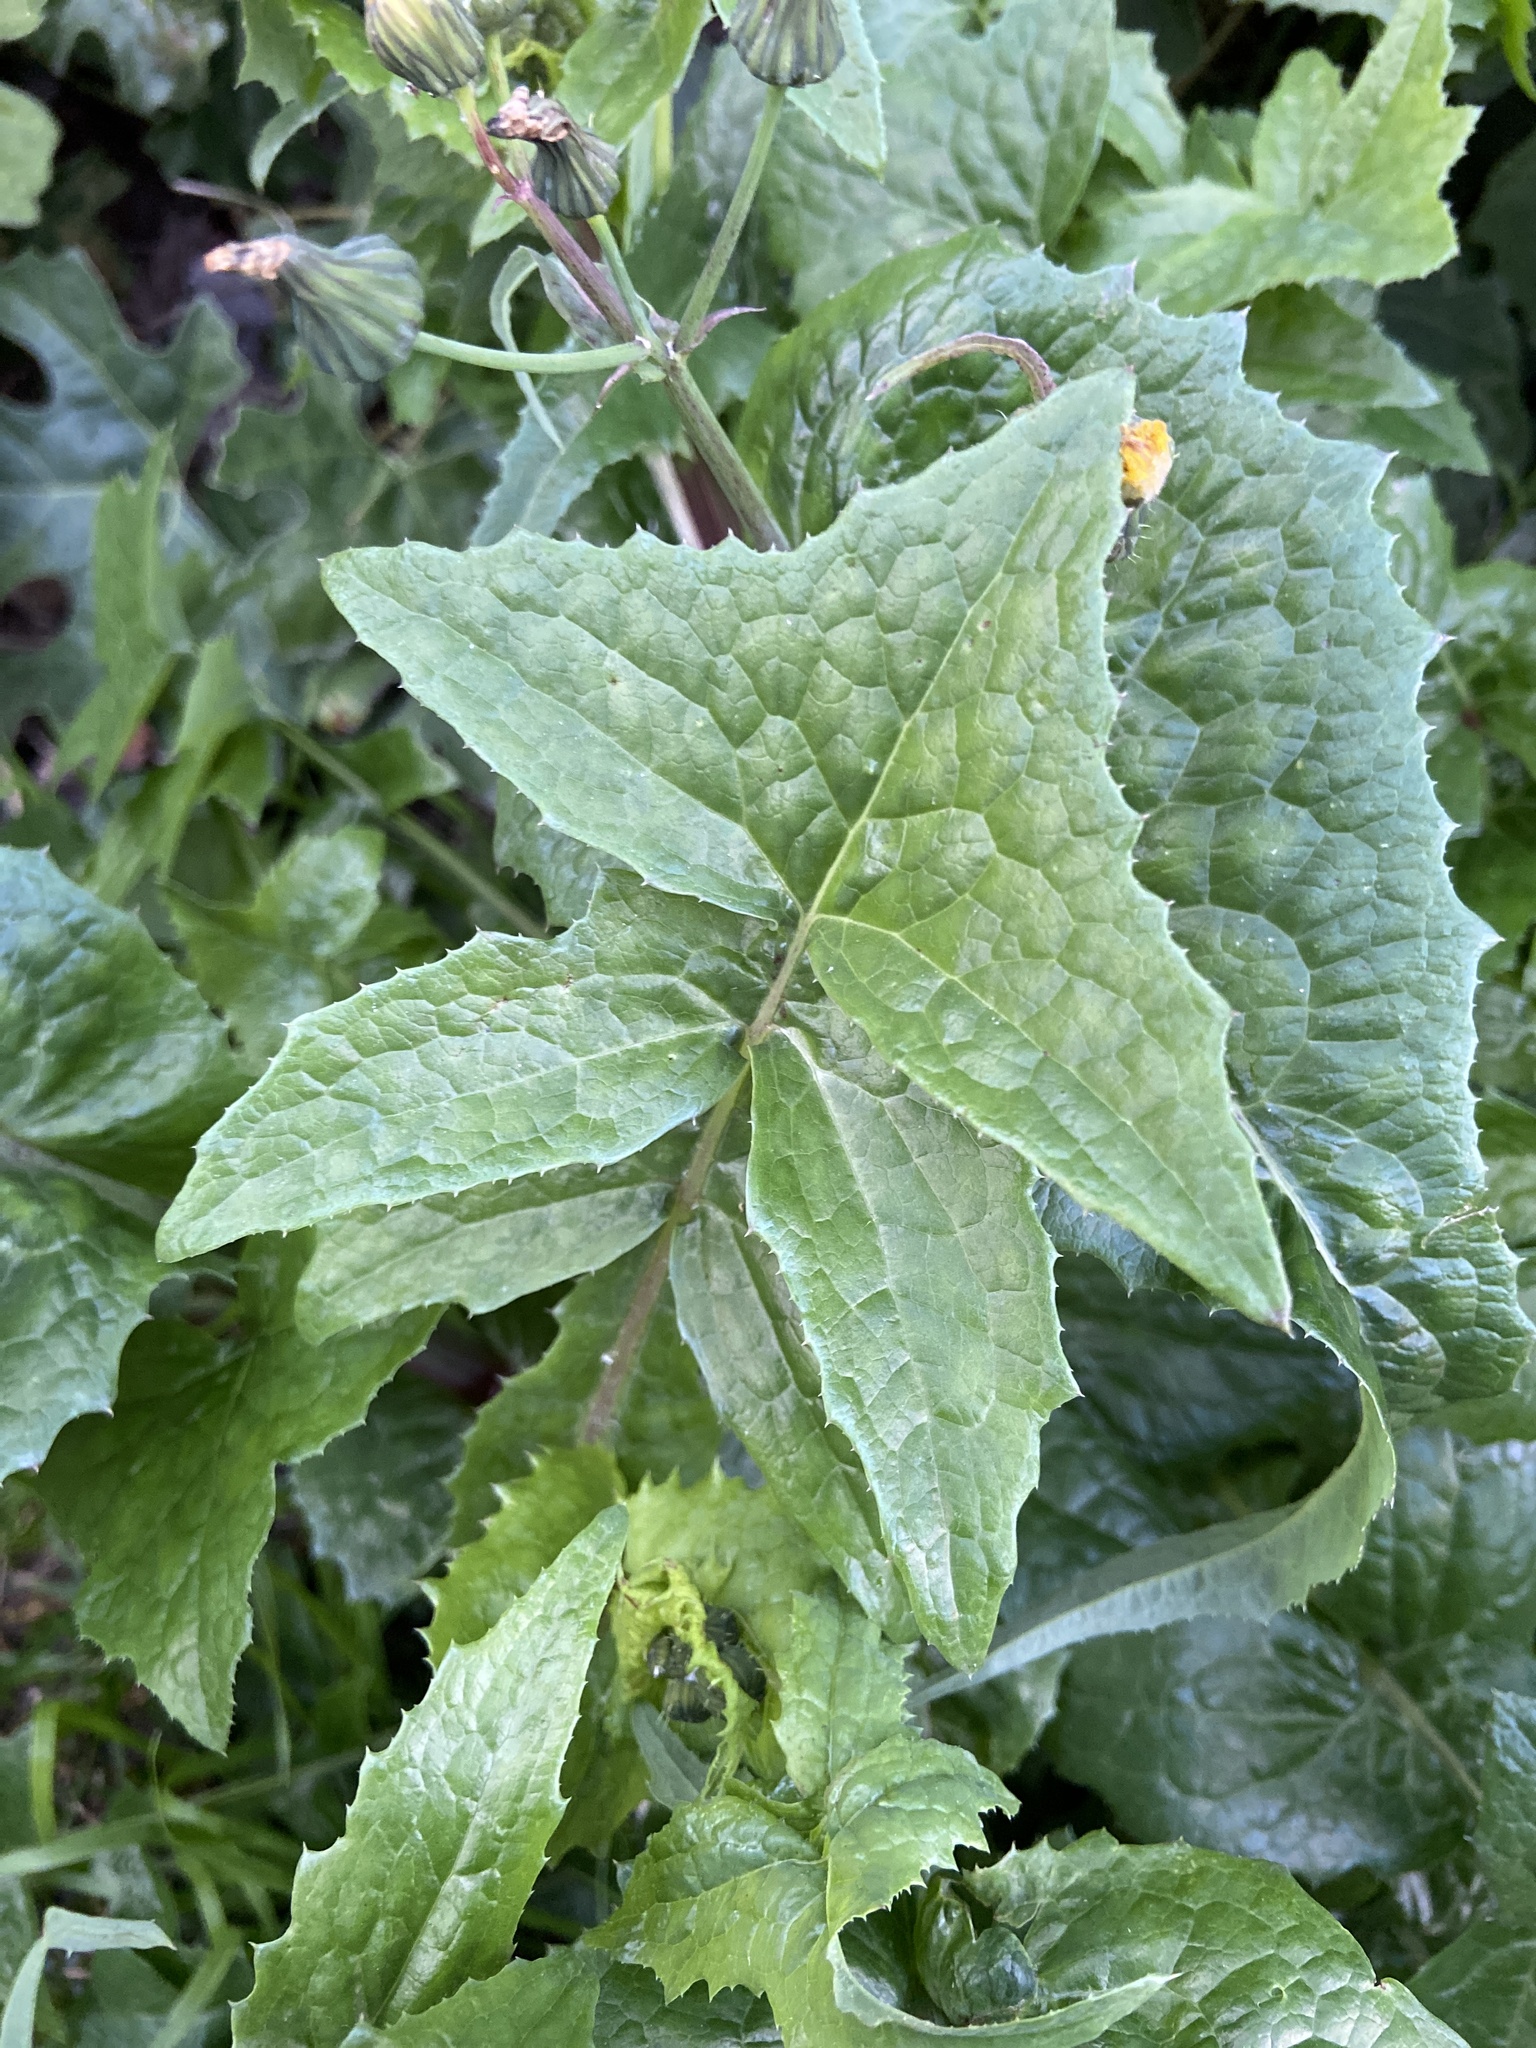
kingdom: Plantae
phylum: Tracheophyta
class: Magnoliopsida
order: Asterales
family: Asteraceae
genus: Sonchus
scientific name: Sonchus oleraceus
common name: Common sowthistle
